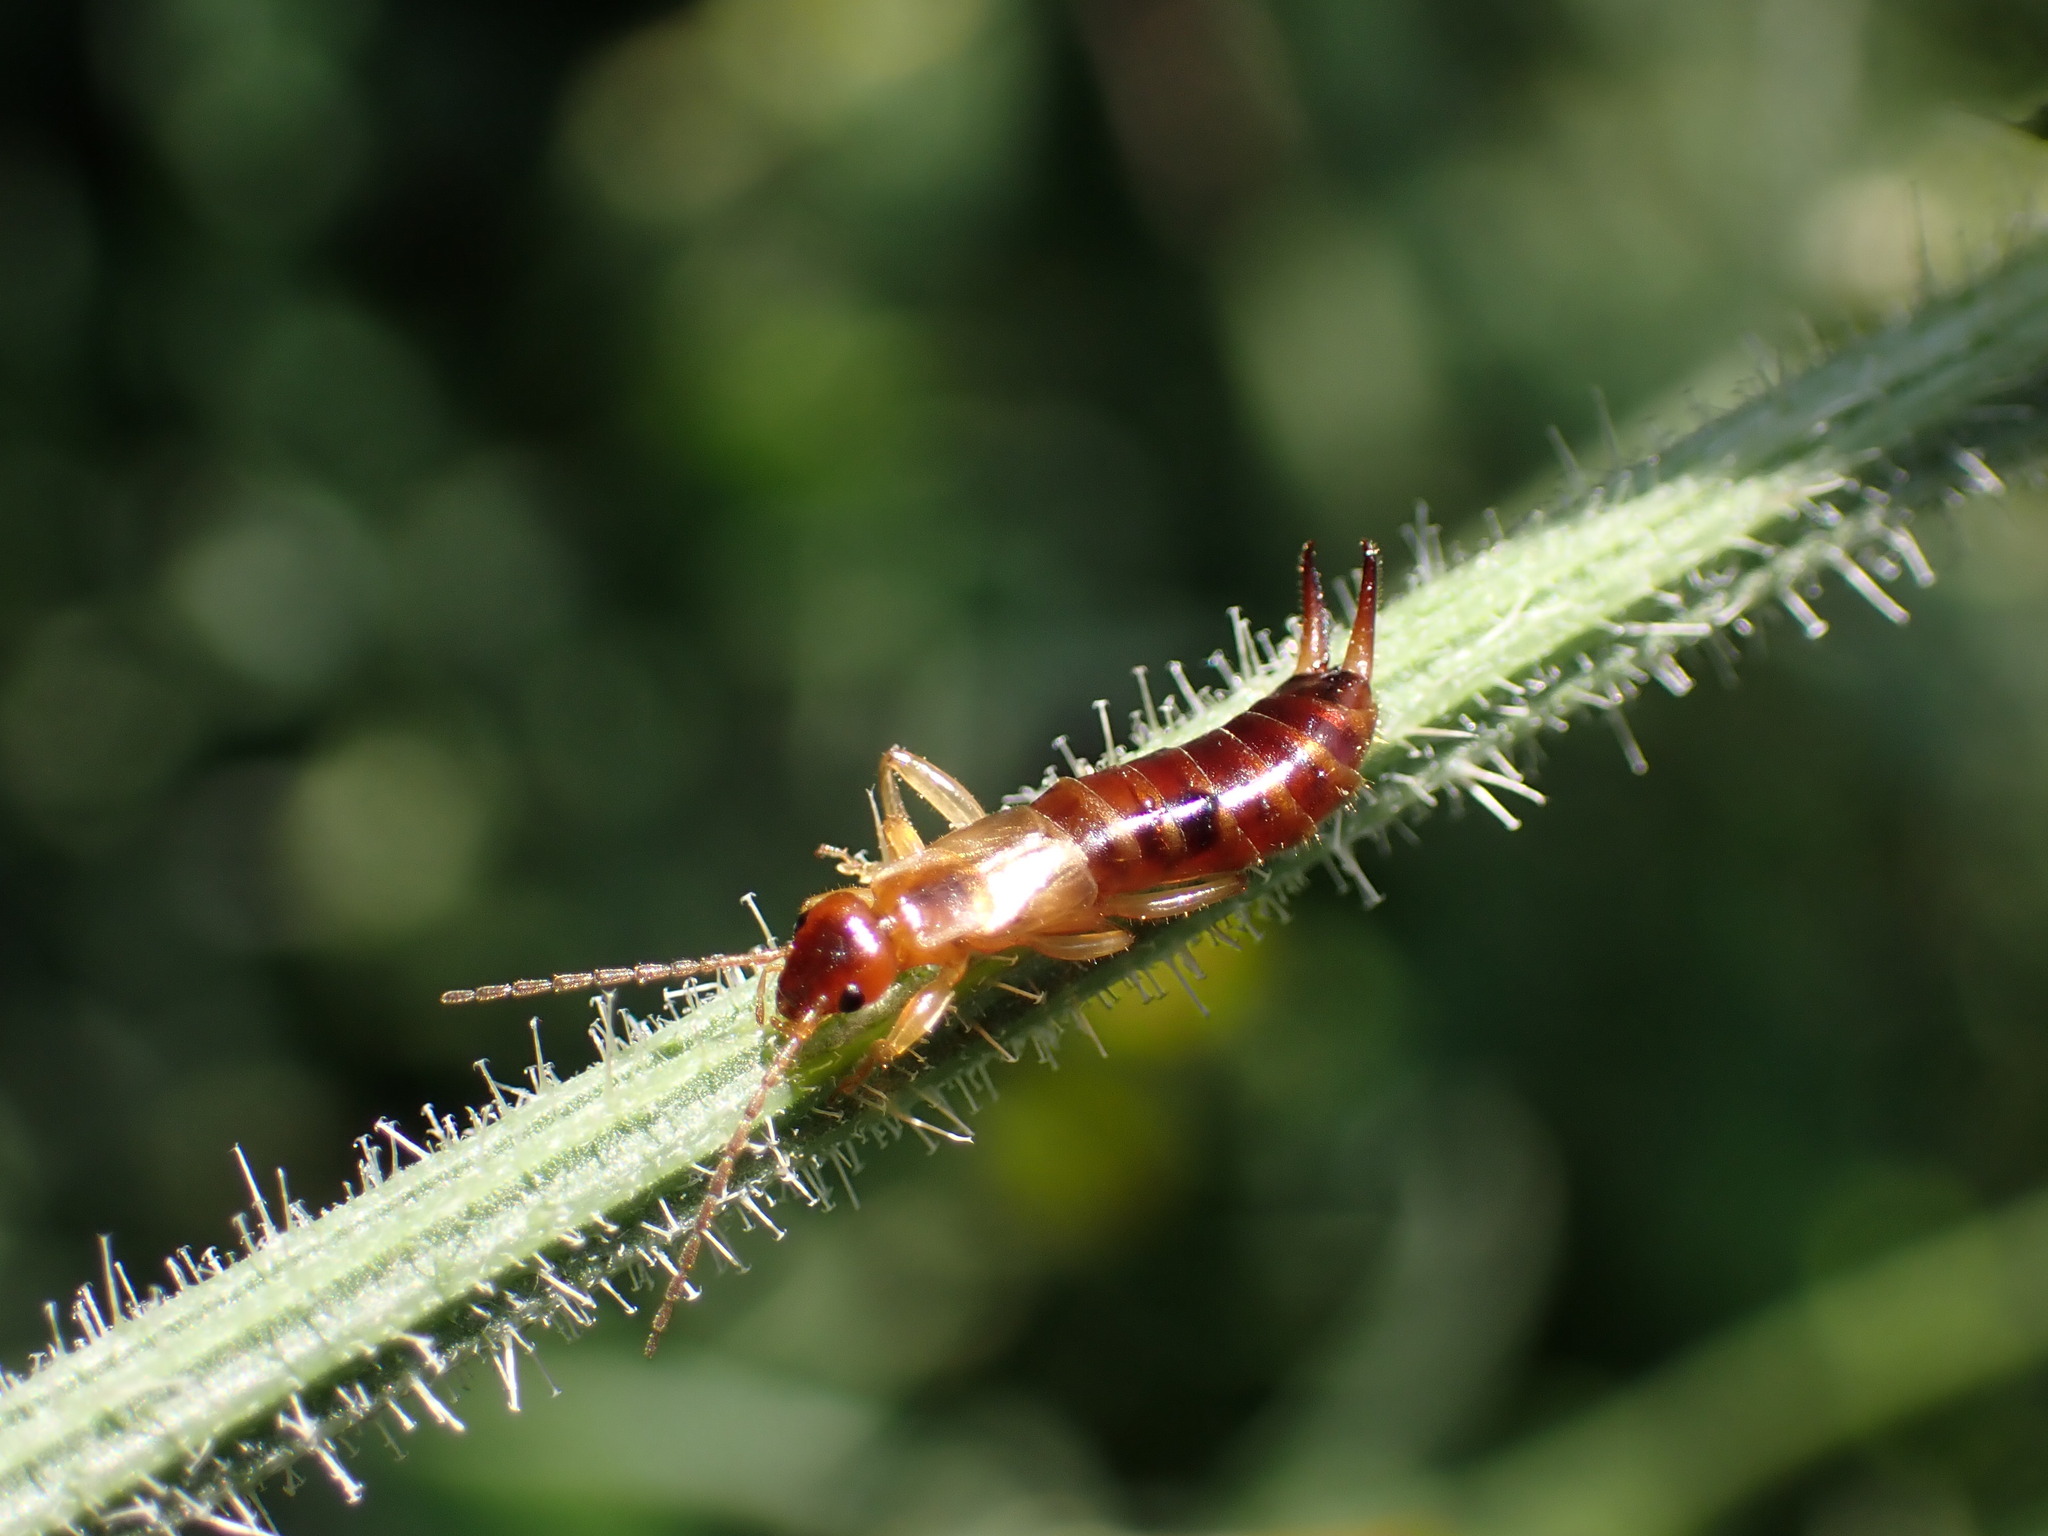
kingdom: Animalia
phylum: Arthropoda
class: Insecta
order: Dermaptera
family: Forficulidae
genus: Guanchia
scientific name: Guanchia pubescens
